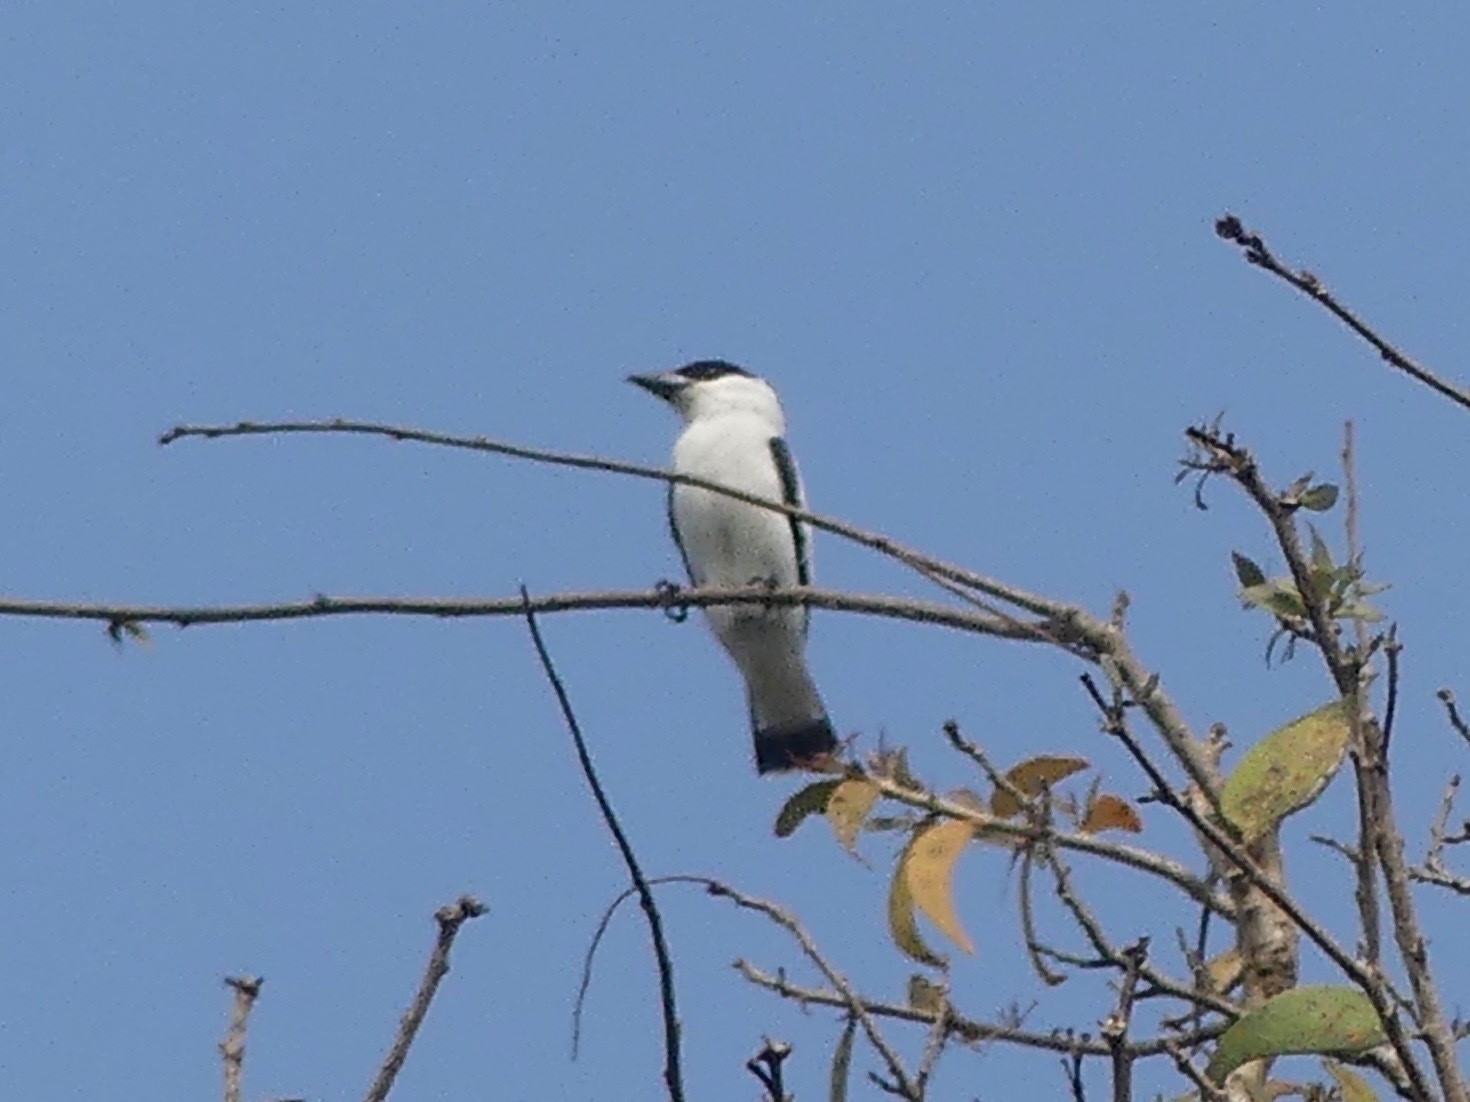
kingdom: Animalia
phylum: Chordata
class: Aves
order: Passeriformes
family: Cotingidae
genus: Tityra
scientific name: Tityra inquisitor
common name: Black-crowned tityra
